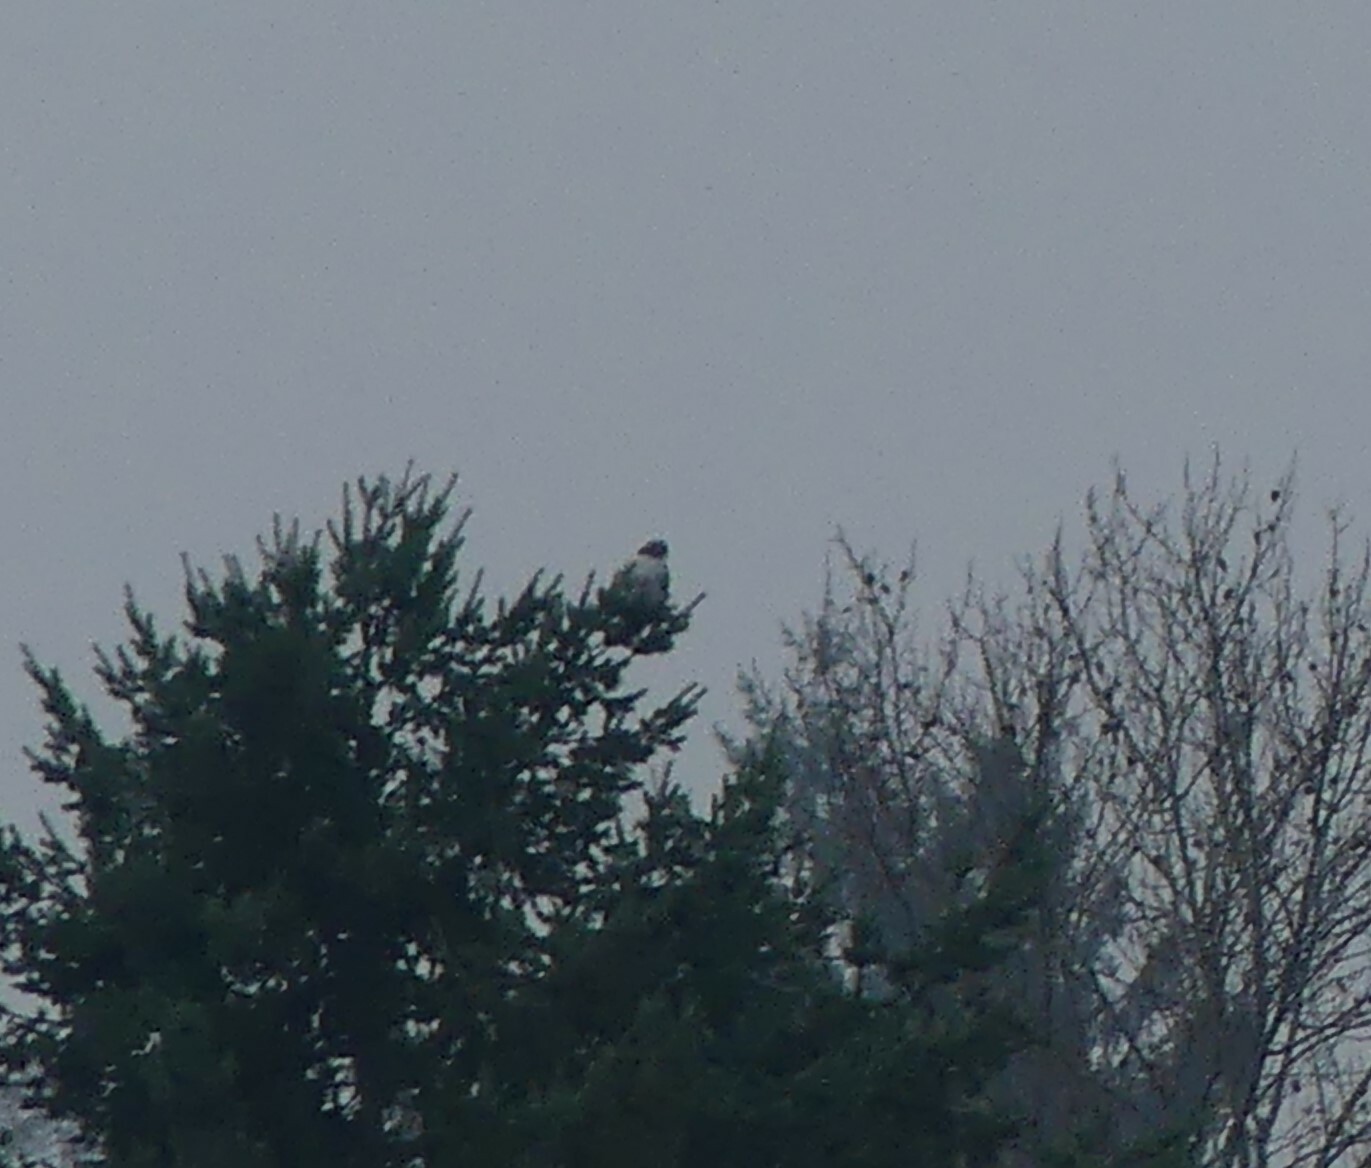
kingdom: Animalia
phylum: Chordata
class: Aves
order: Accipitriformes
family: Accipitridae
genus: Buteo
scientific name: Buteo jamaicensis
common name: Red-tailed hawk
